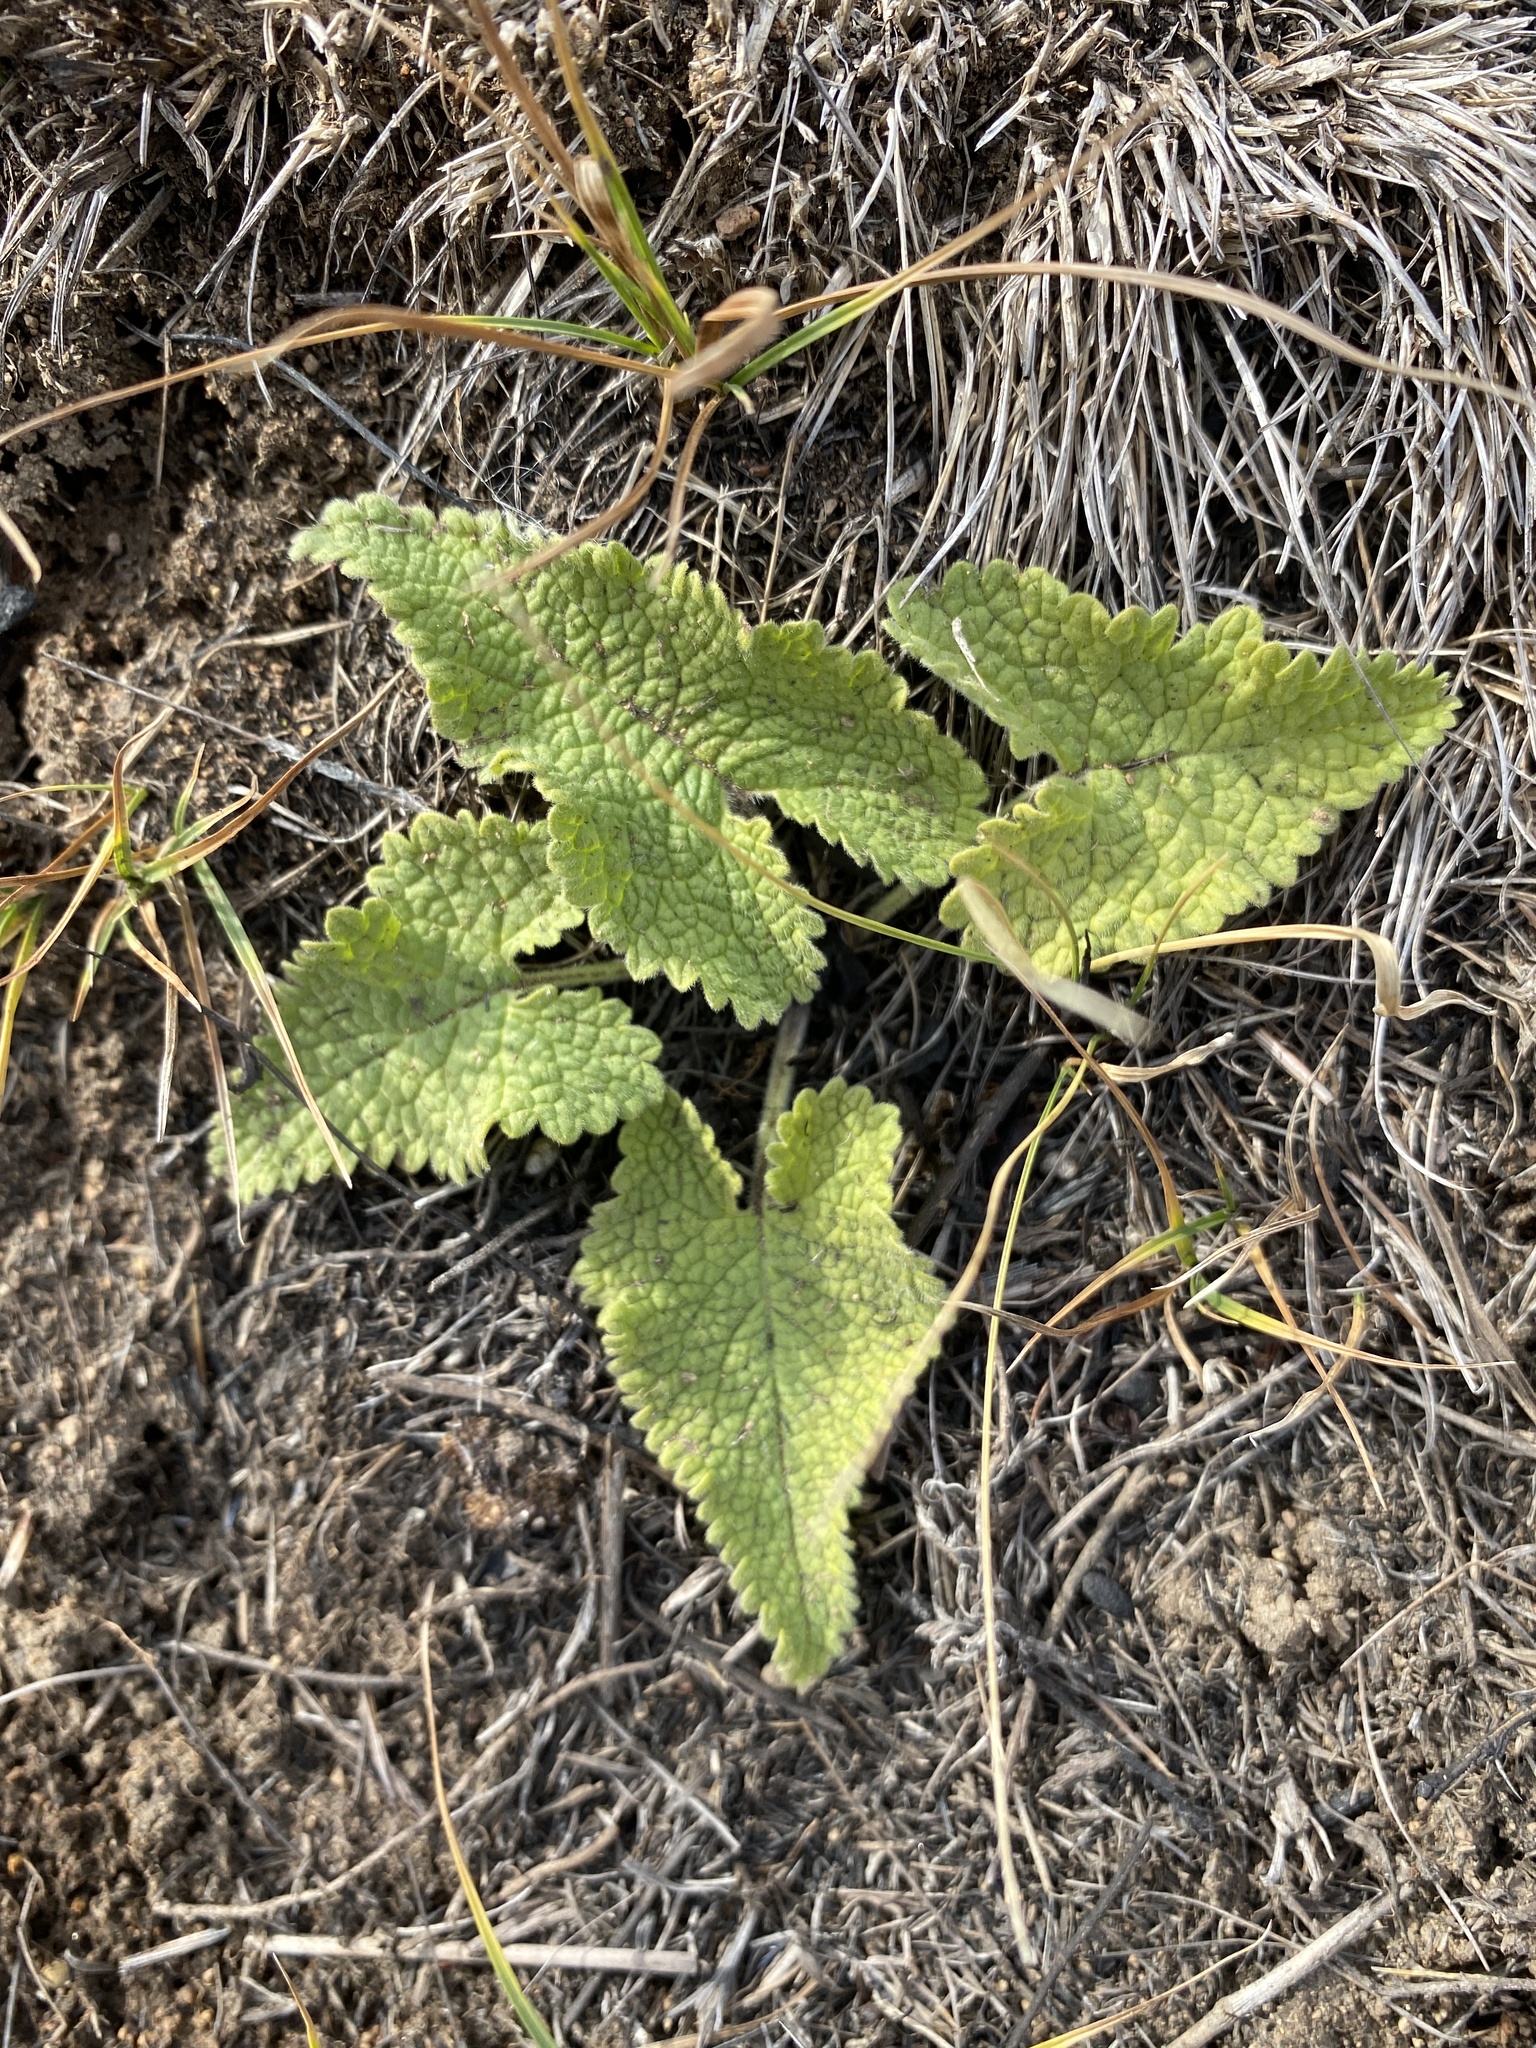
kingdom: Plantae
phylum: Tracheophyta
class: Magnoliopsida
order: Lamiales
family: Lamiaceae
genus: Phlomoides
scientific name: Phlomoides tuberosa
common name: Tuberous jerusalem sage
